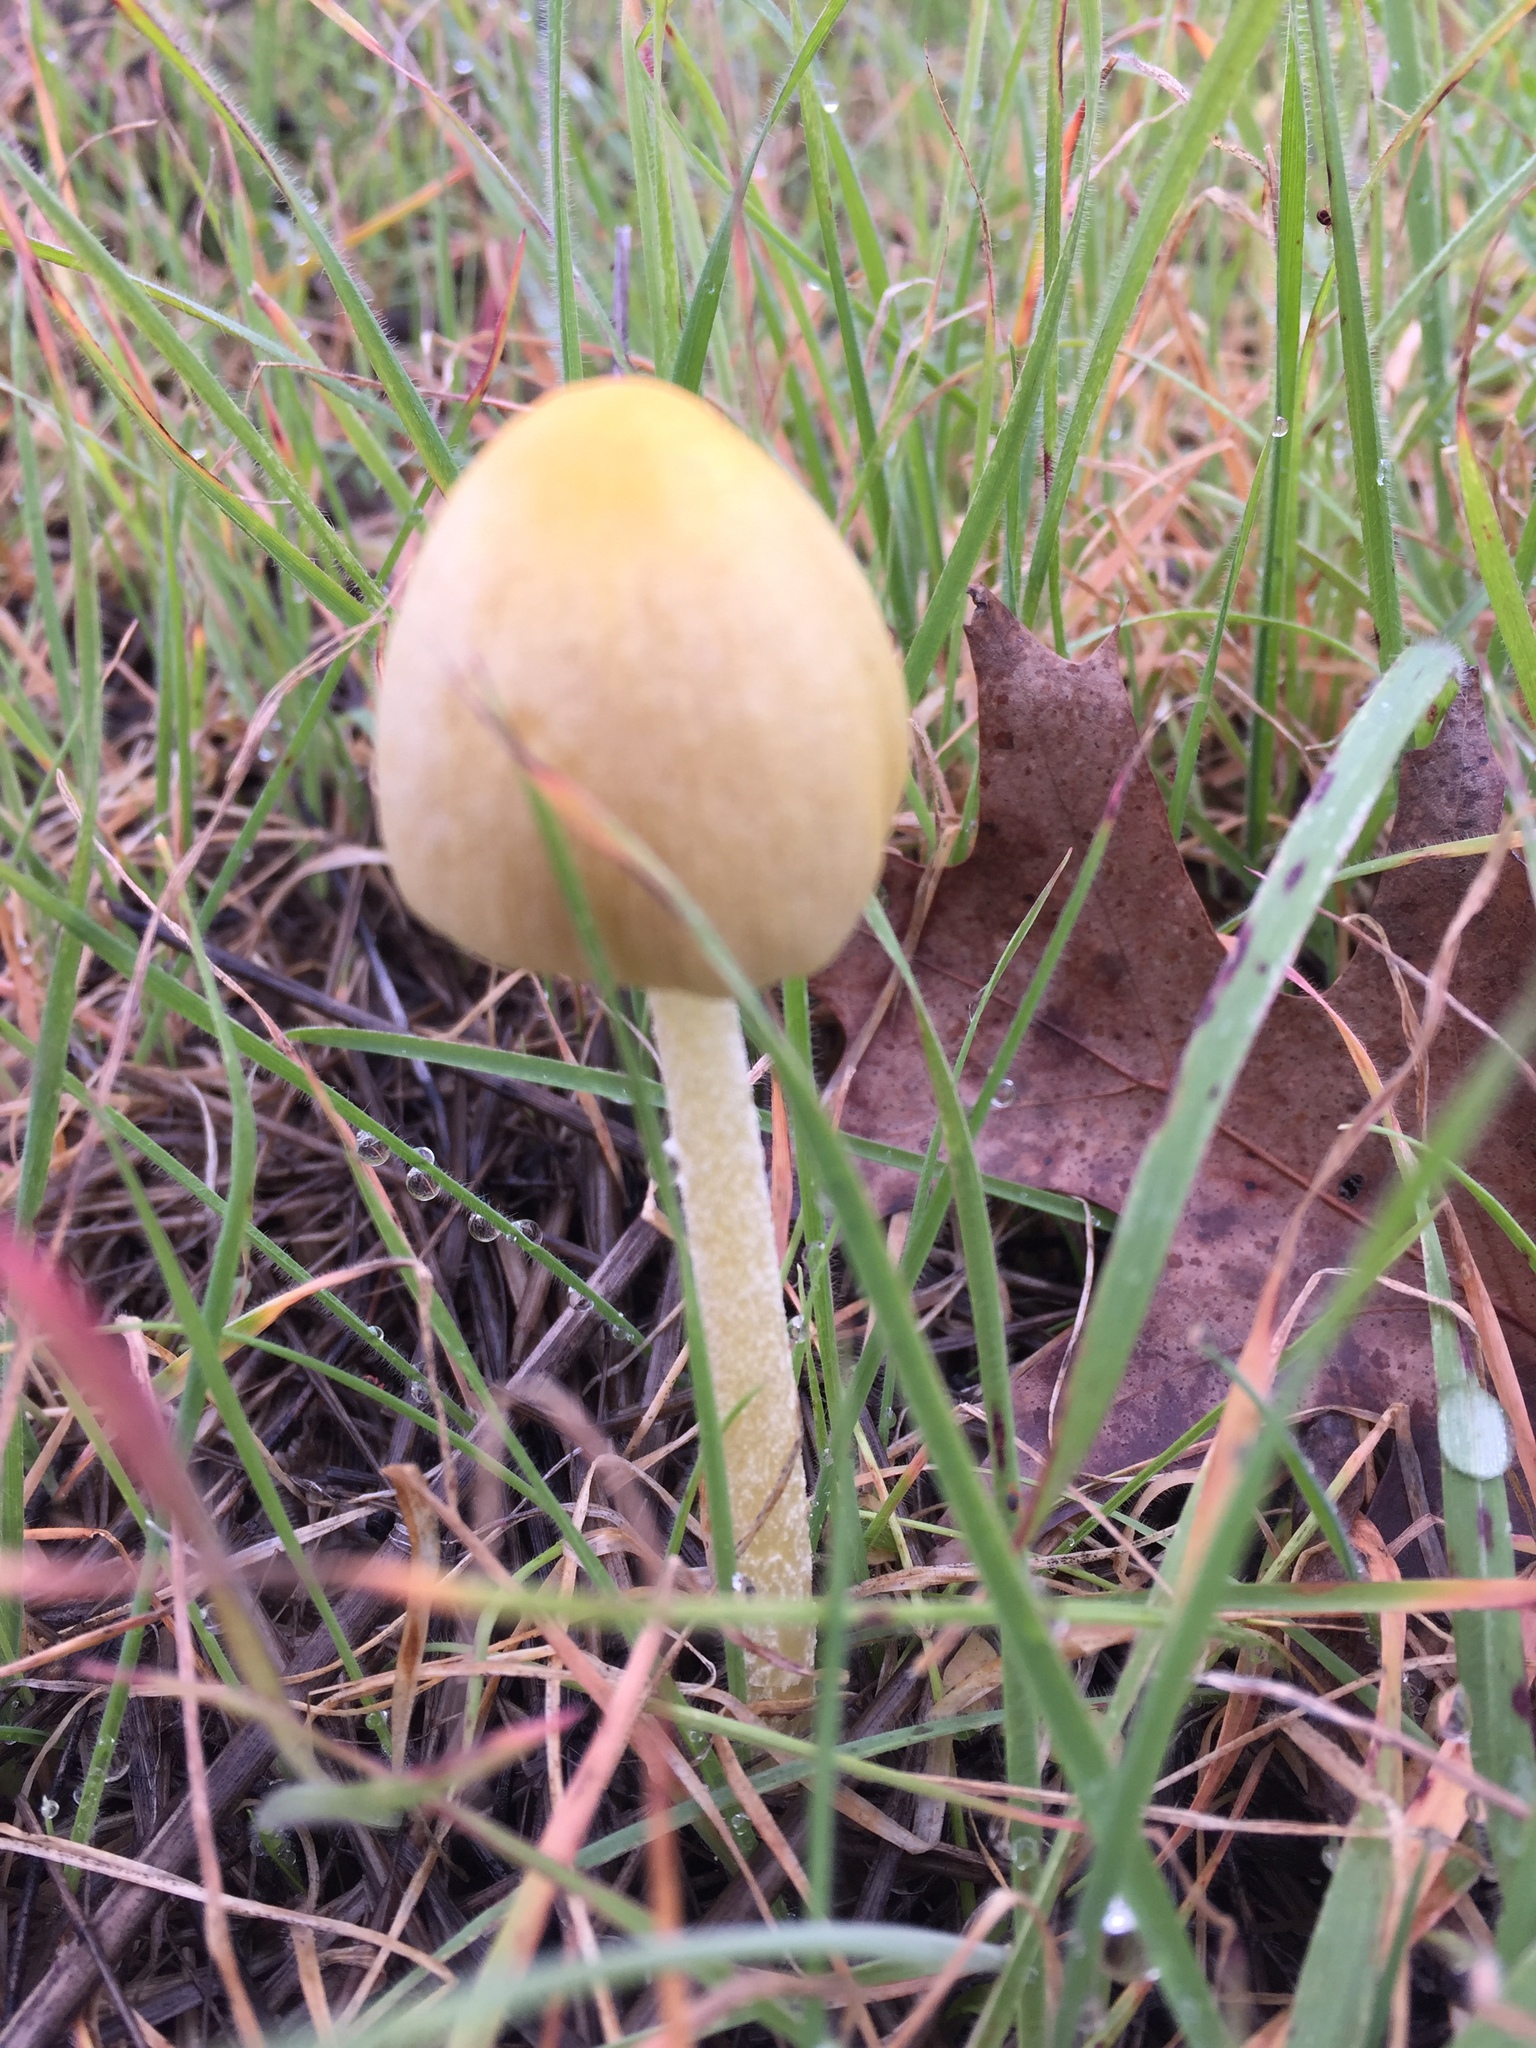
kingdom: Fungi
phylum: Basidiomycota
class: Agaricomycetes
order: Agaricales
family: Bolbitiaceae
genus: Bolbitius
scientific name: Bolbitius titubans
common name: Yellow fieldcap
